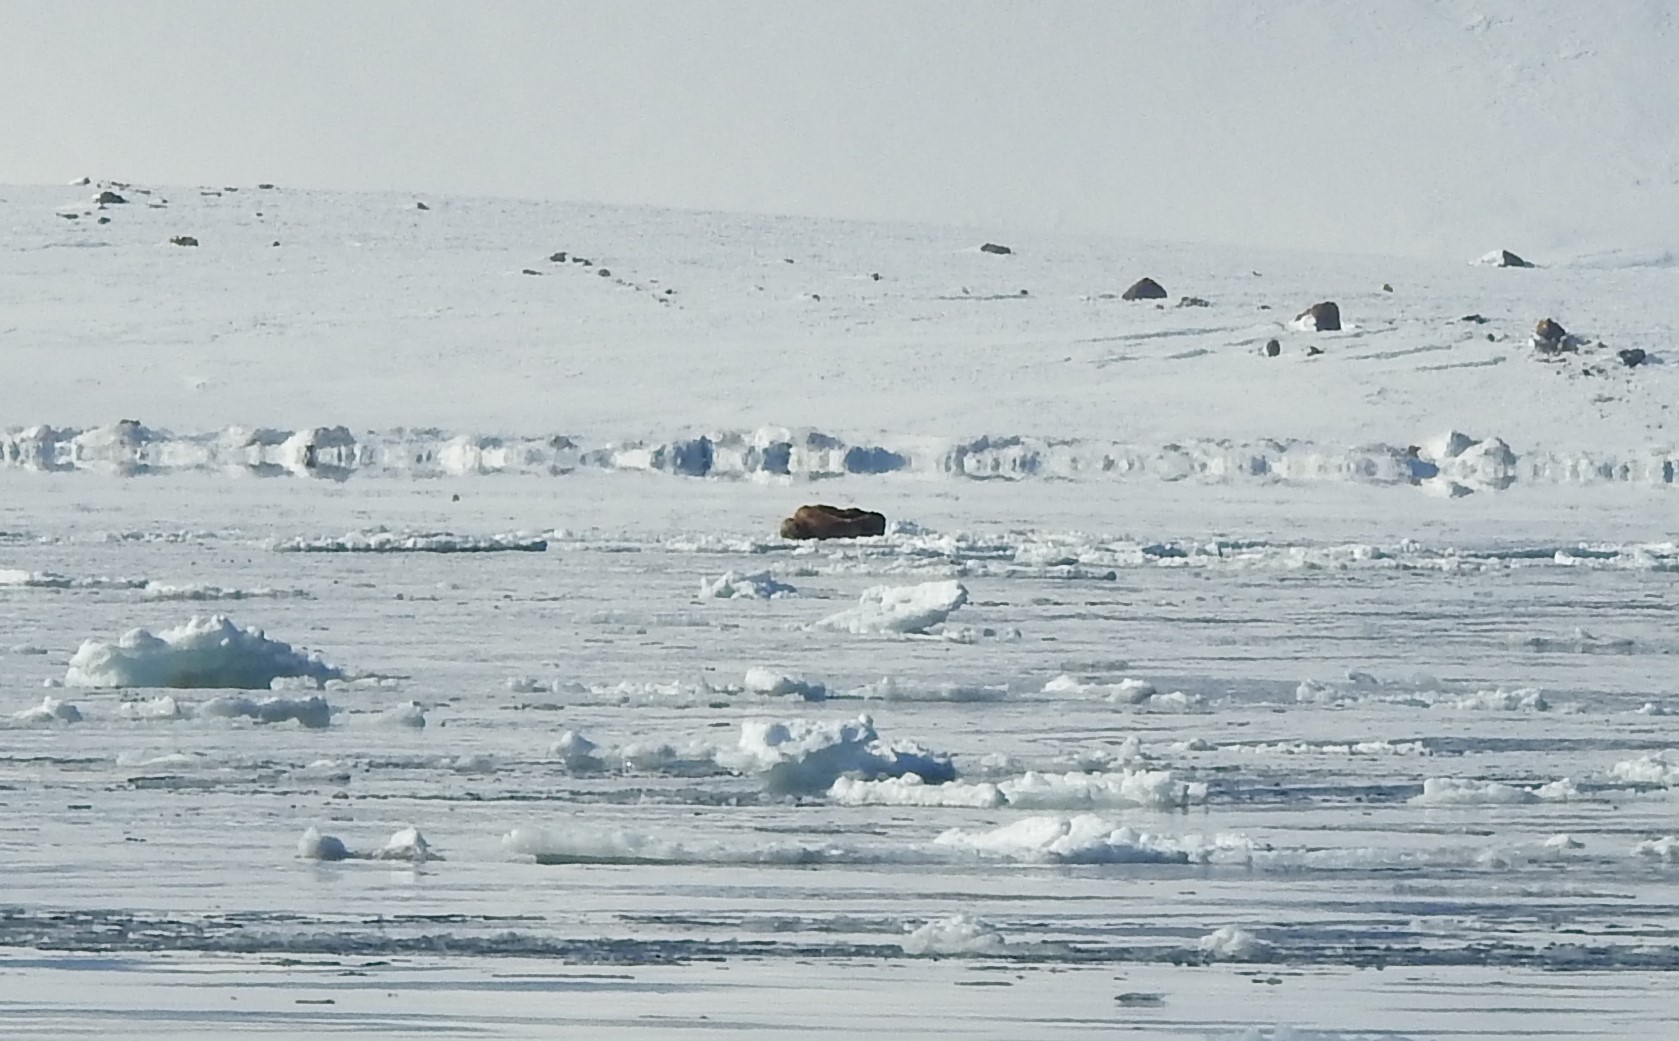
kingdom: Animalia
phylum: Chordata
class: Mammalia
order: Carnivora
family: Odobenidae
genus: Odobenus
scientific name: Odobenus rosmarus
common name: Walrus
